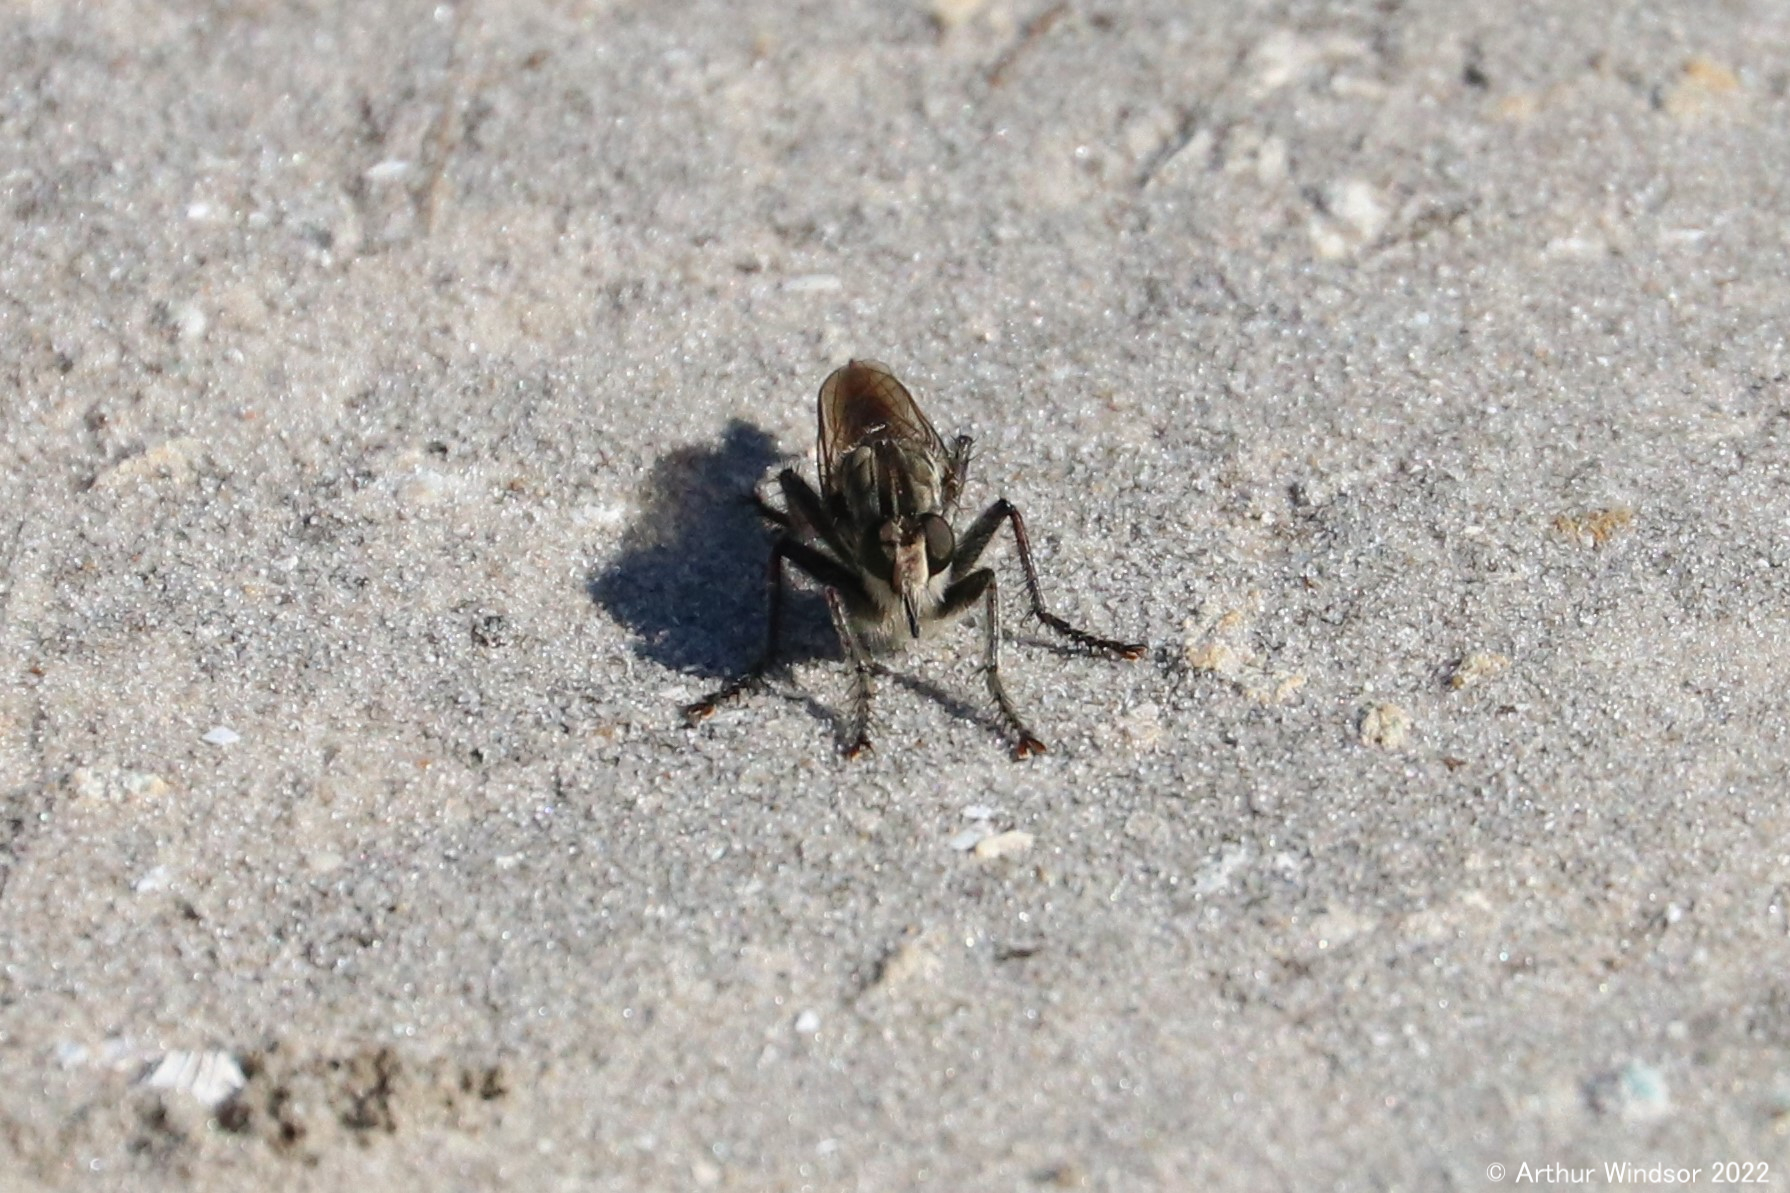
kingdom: Animalia
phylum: Arthropoda
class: Insecta
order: Diptera
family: Asilidae
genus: Triorla
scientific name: Triorla interrupta
